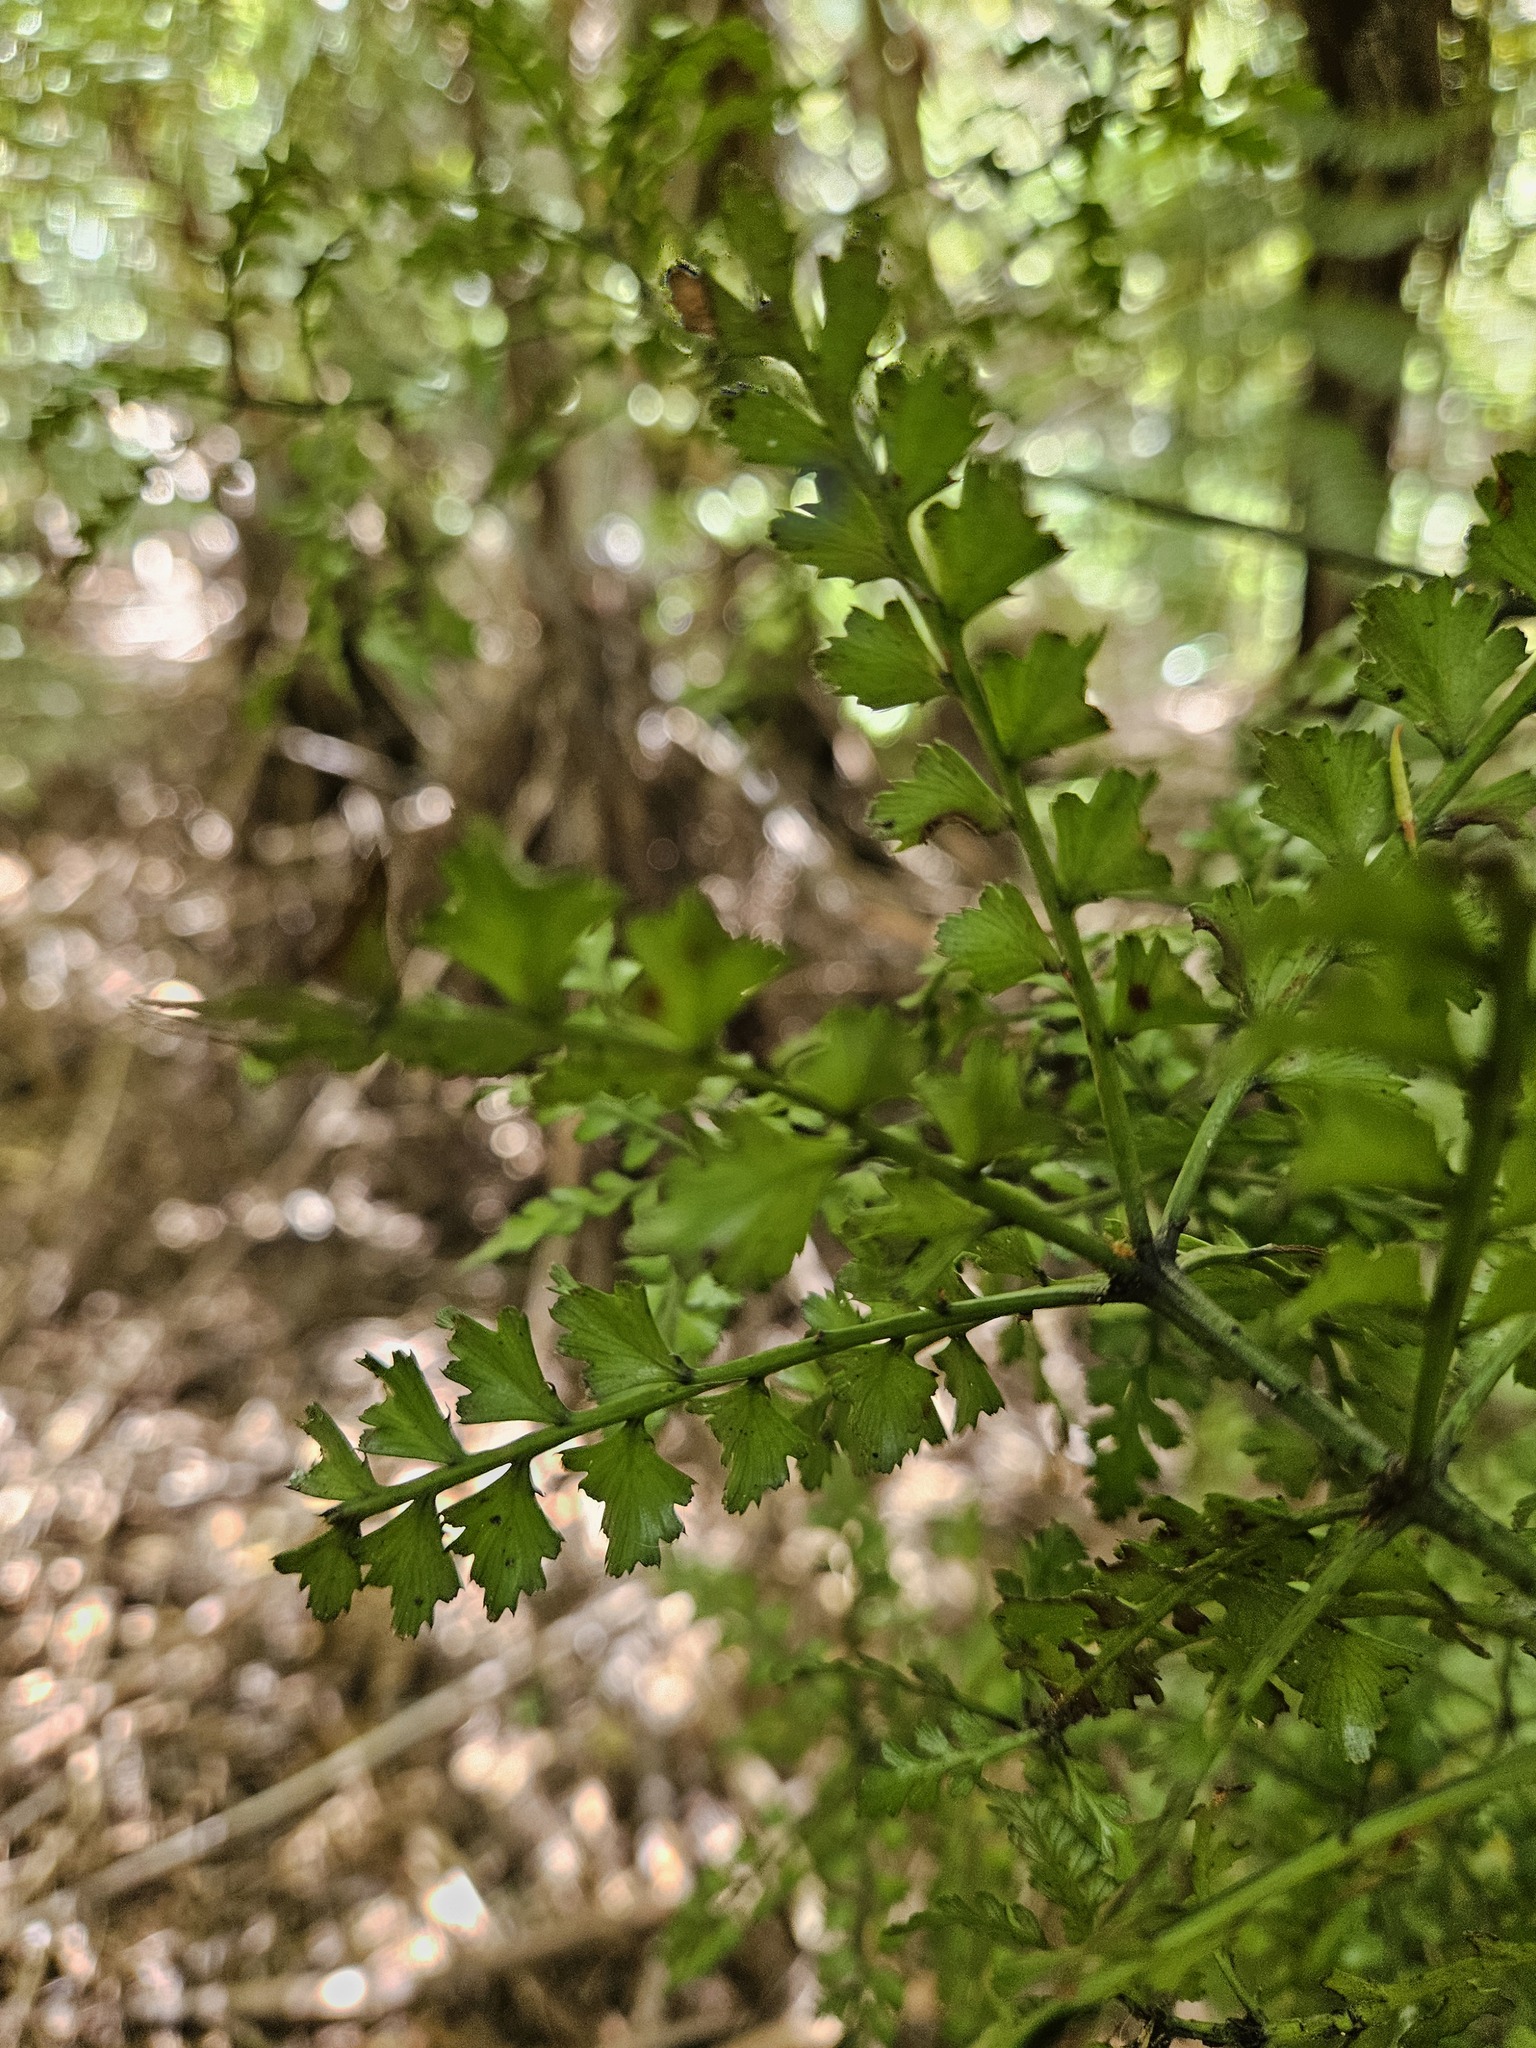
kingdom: Plantae
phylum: Tracheophyta
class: Pinopsida
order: Pinales
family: Phyllocladaceae
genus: Phyllocladus
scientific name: Phyllocladus trichomanoides
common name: Celery pine
